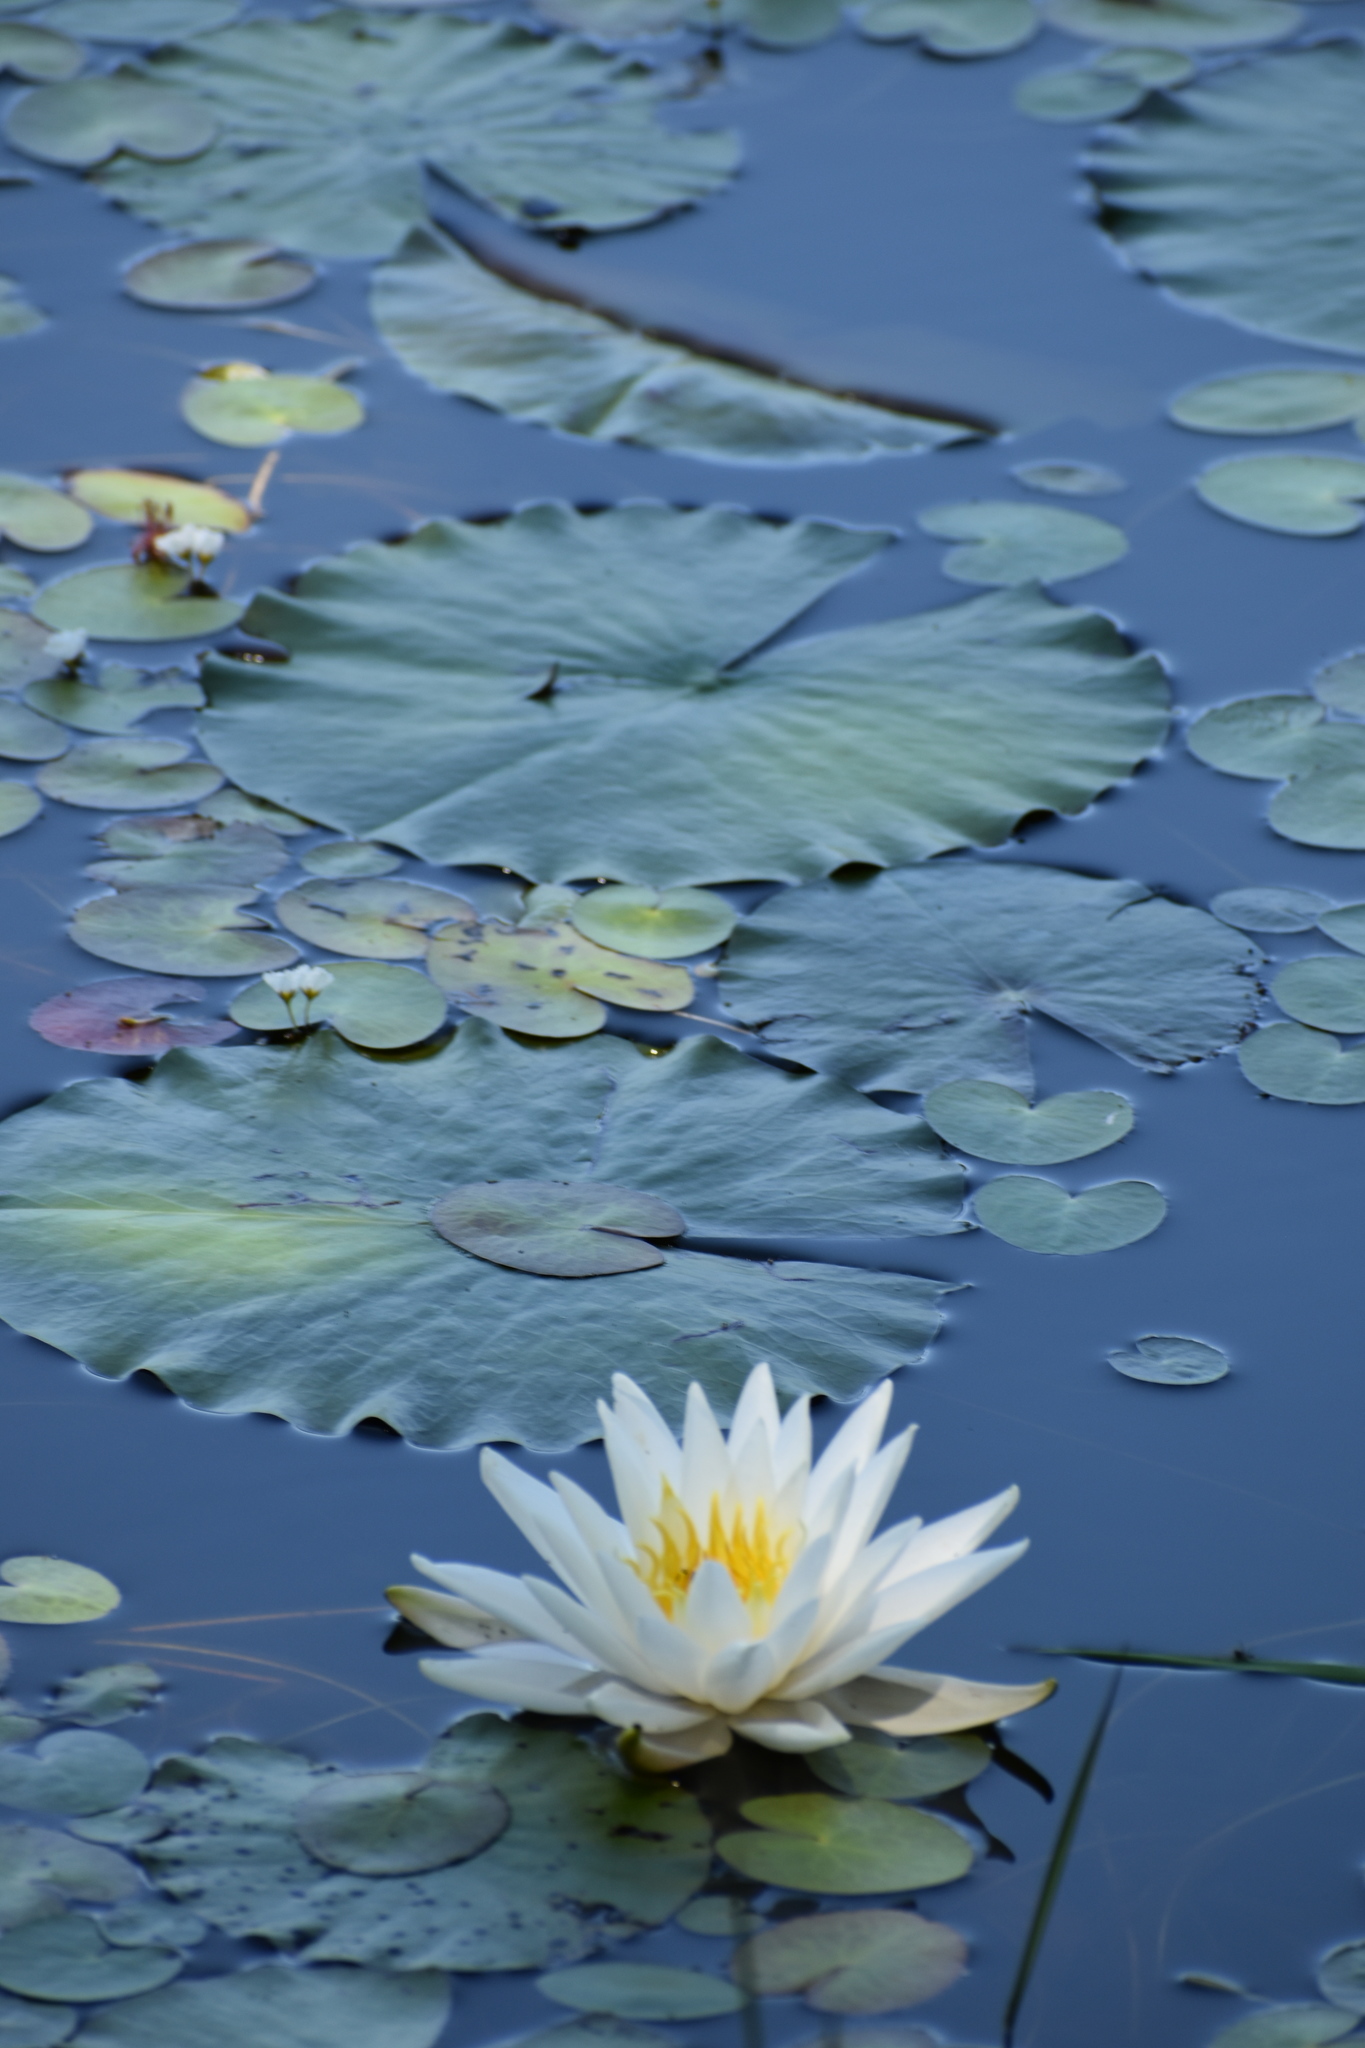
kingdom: Plantae
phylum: Tracheophyta
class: Magnoliopsida
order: Nymphaeales
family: Nymphaeaceae
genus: Nymphaea
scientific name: Nymphaea odorata
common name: Fragrant water-lily
